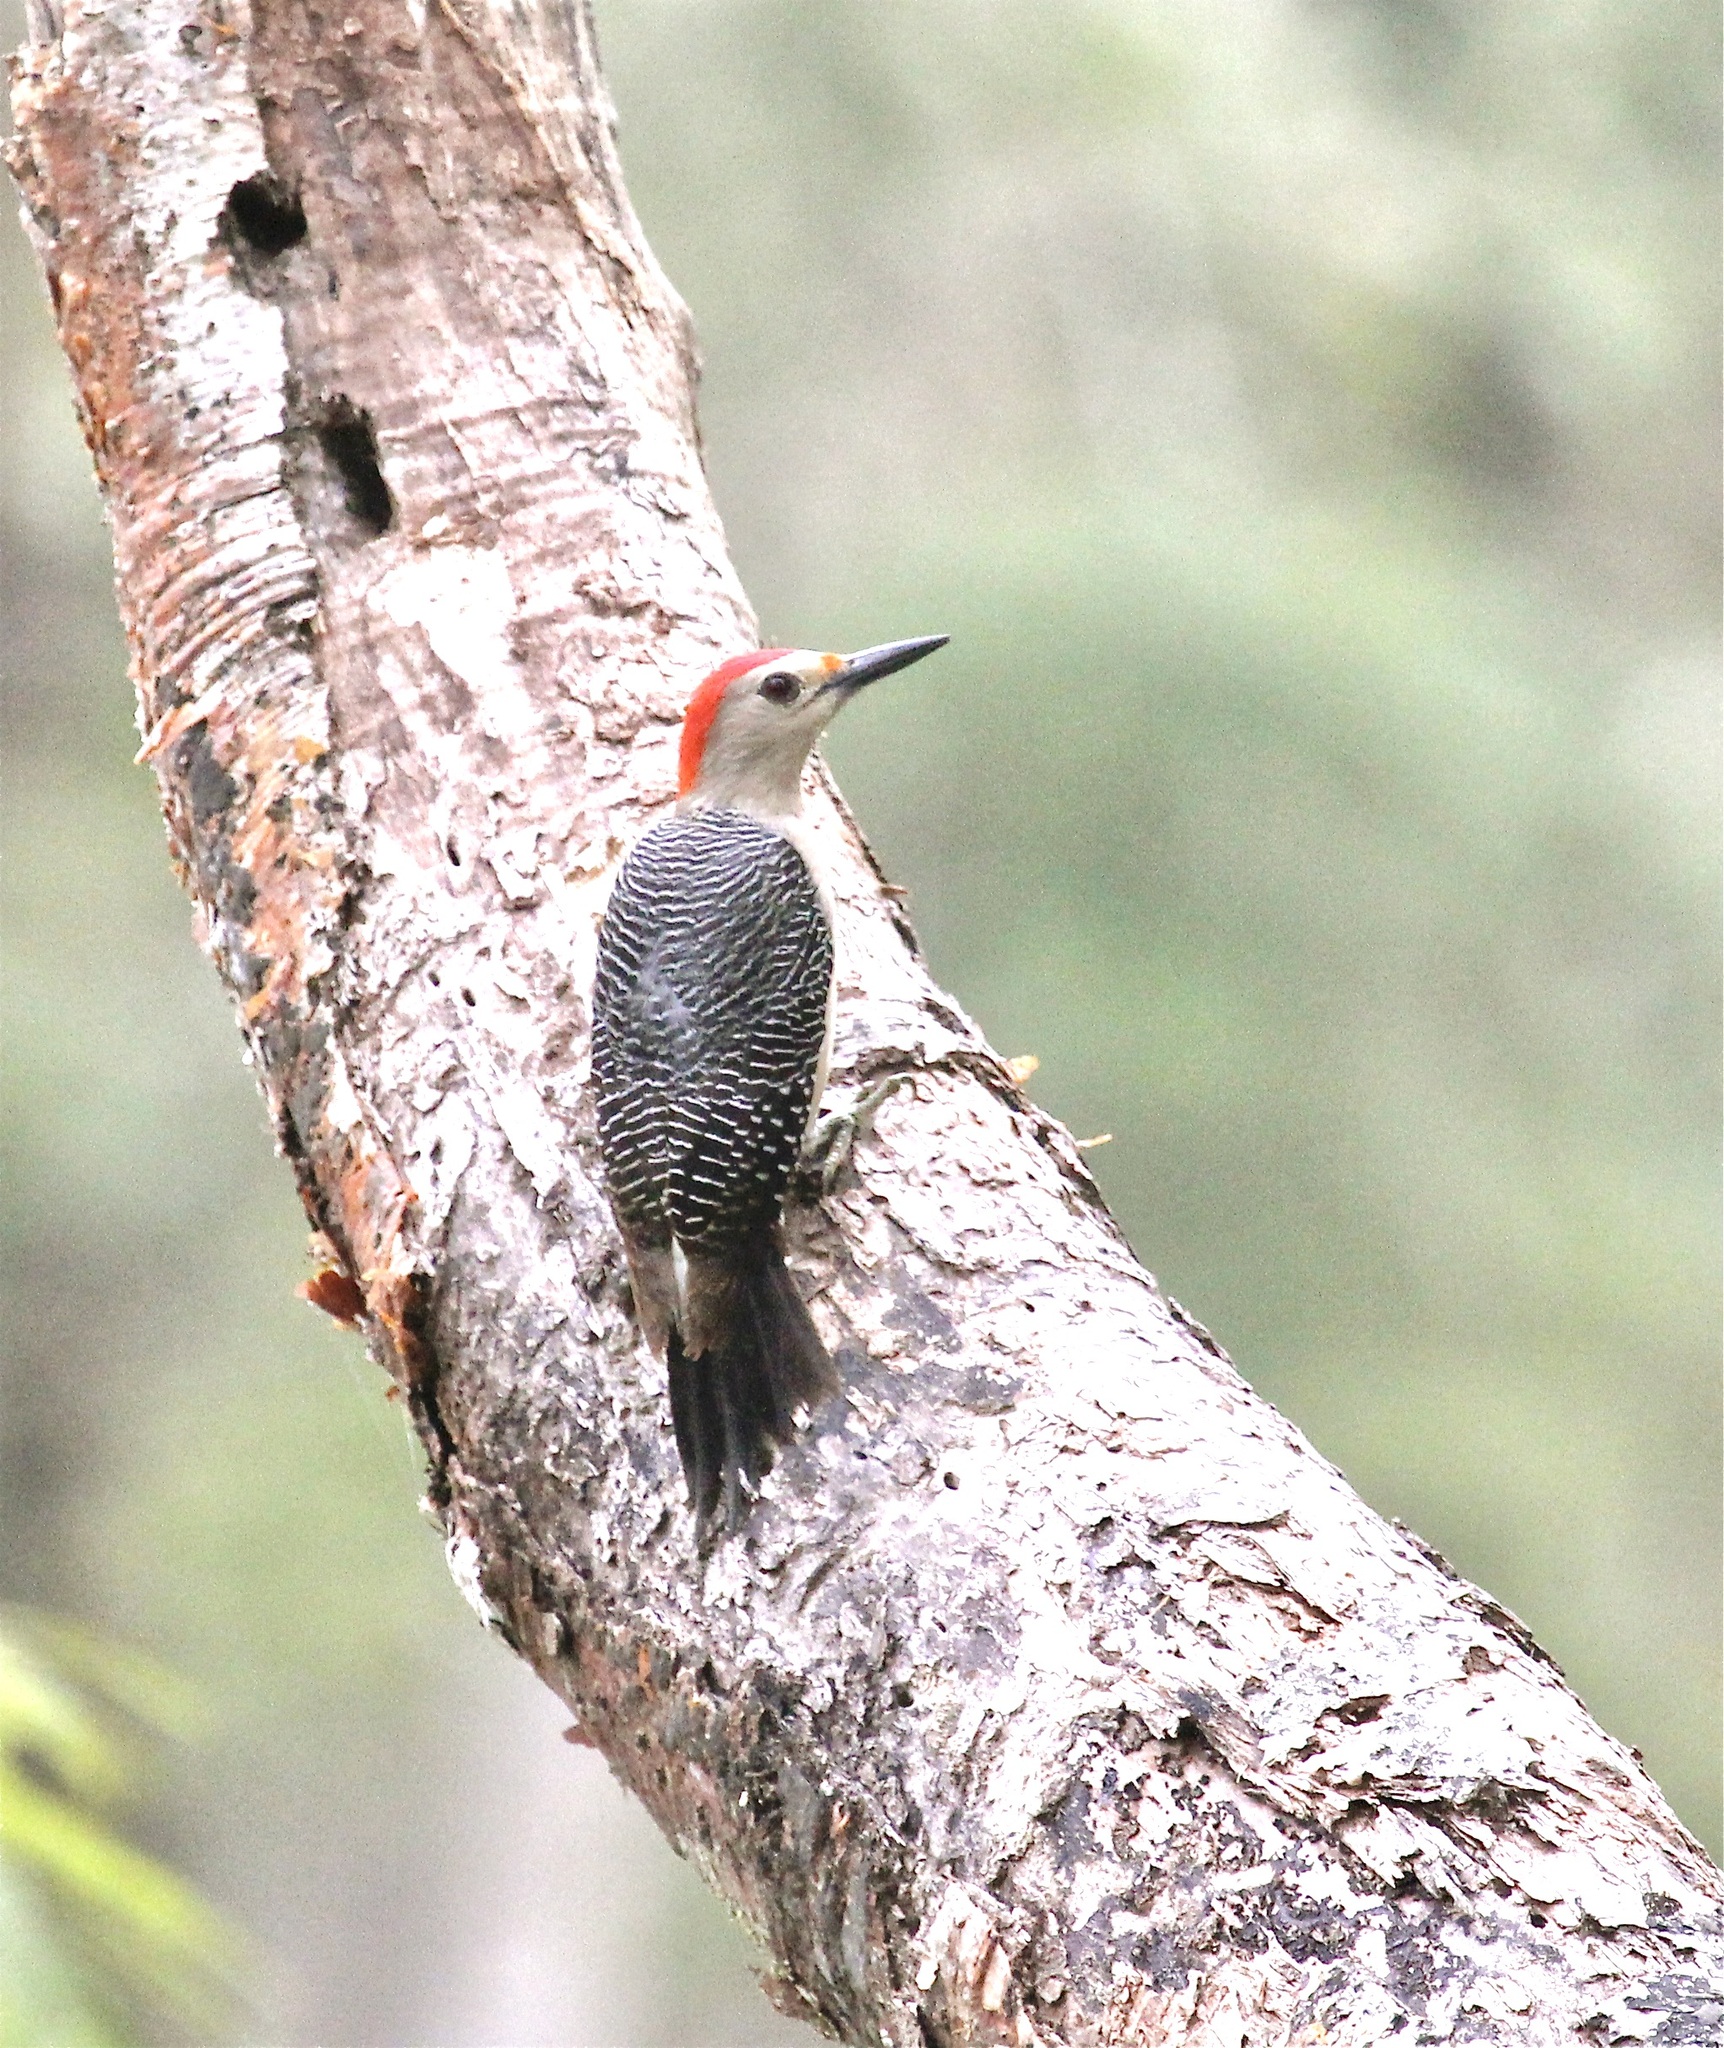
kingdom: Animalia
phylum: Chordata
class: Aves
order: Piciformes
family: Picidae
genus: Melanerpes
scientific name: Melanerpes aurifrons
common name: Golden-fronted woodpecker
